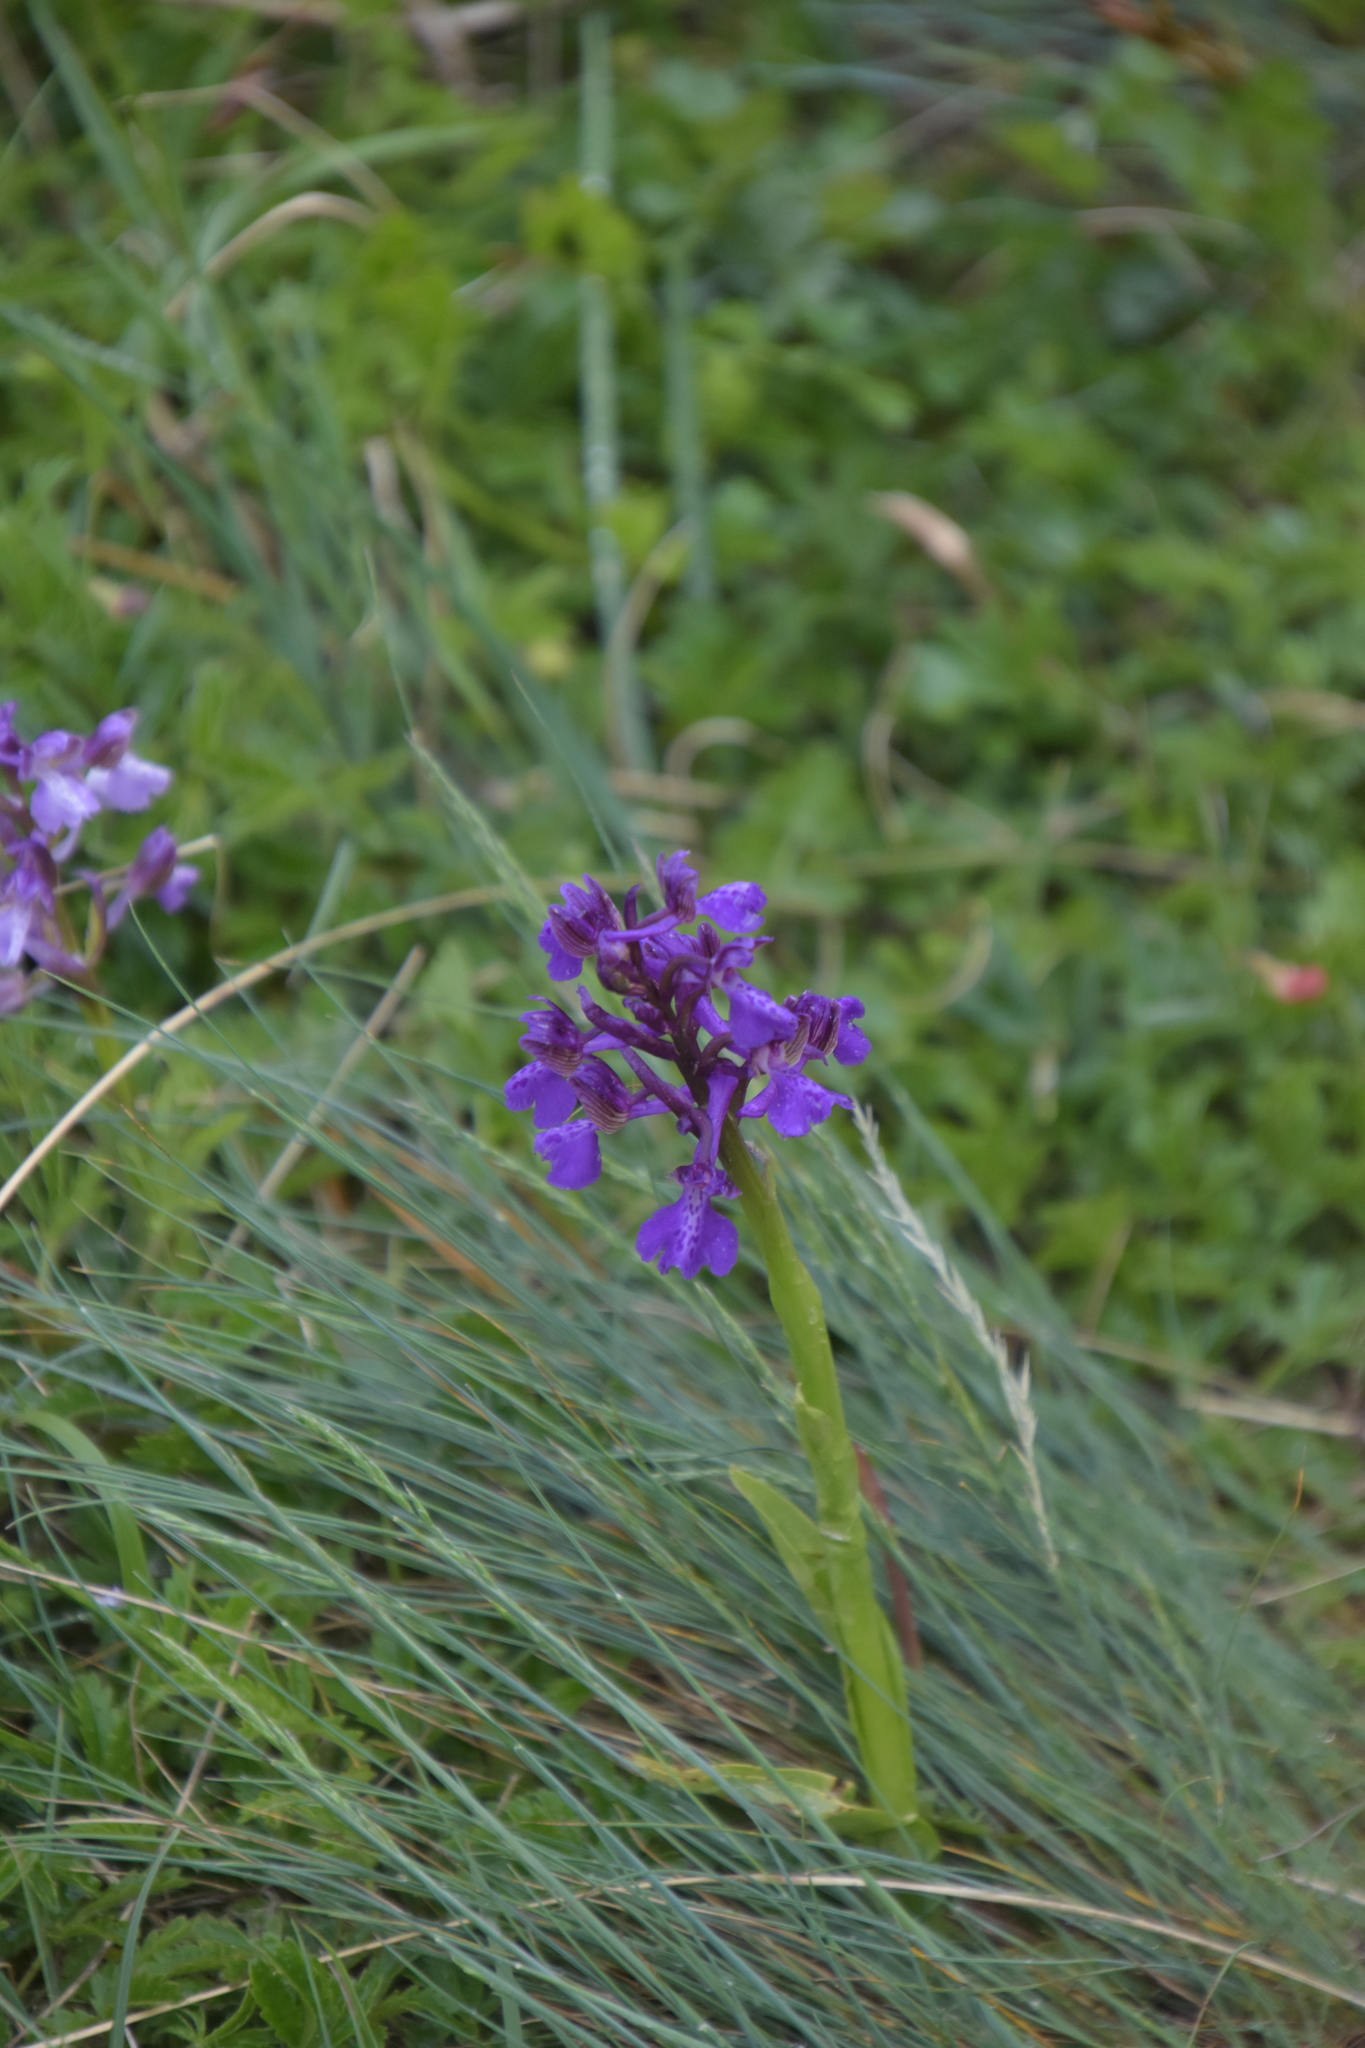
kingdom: Plantae
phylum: Tracheophyta
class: Liliopsida
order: Asparagales
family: Orchidaceae
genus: Anacamptis
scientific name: Anacamptis morio
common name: Green-winged orchid
